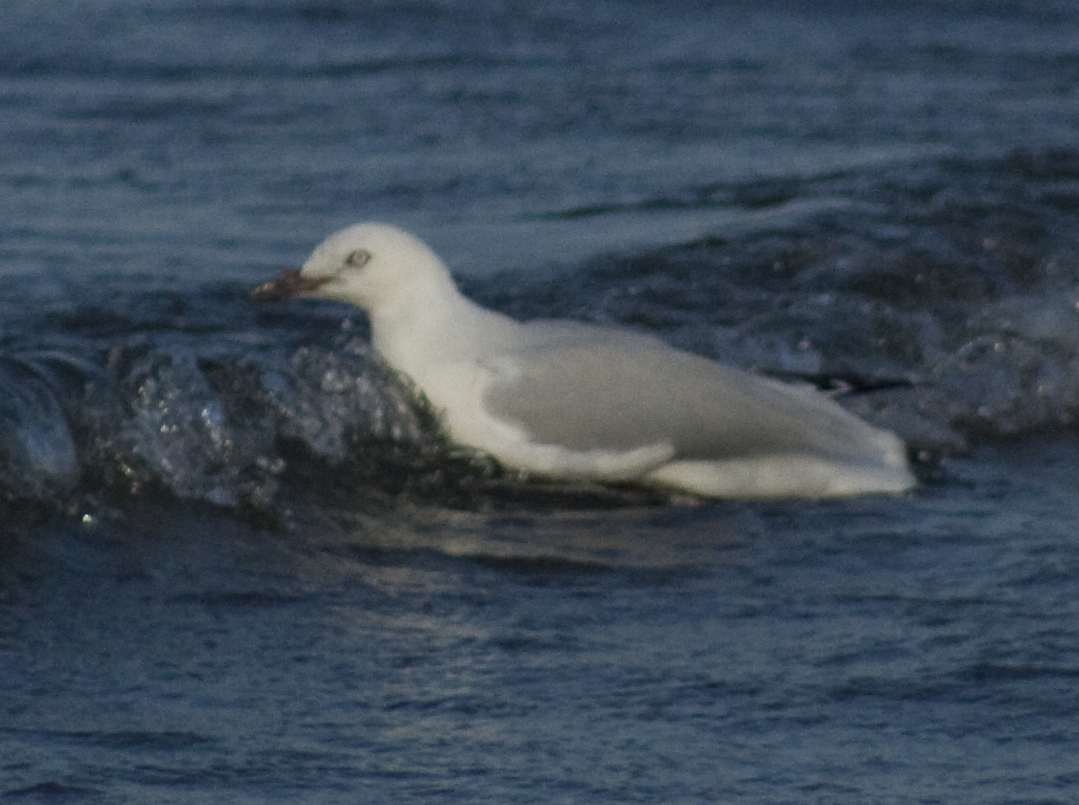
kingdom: Animalia
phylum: Chordata
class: Aves
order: Charadriiformes
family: Laridae
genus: Chroicocephalus
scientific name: Chroicocephalus novaehollandiae
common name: Silver gull
